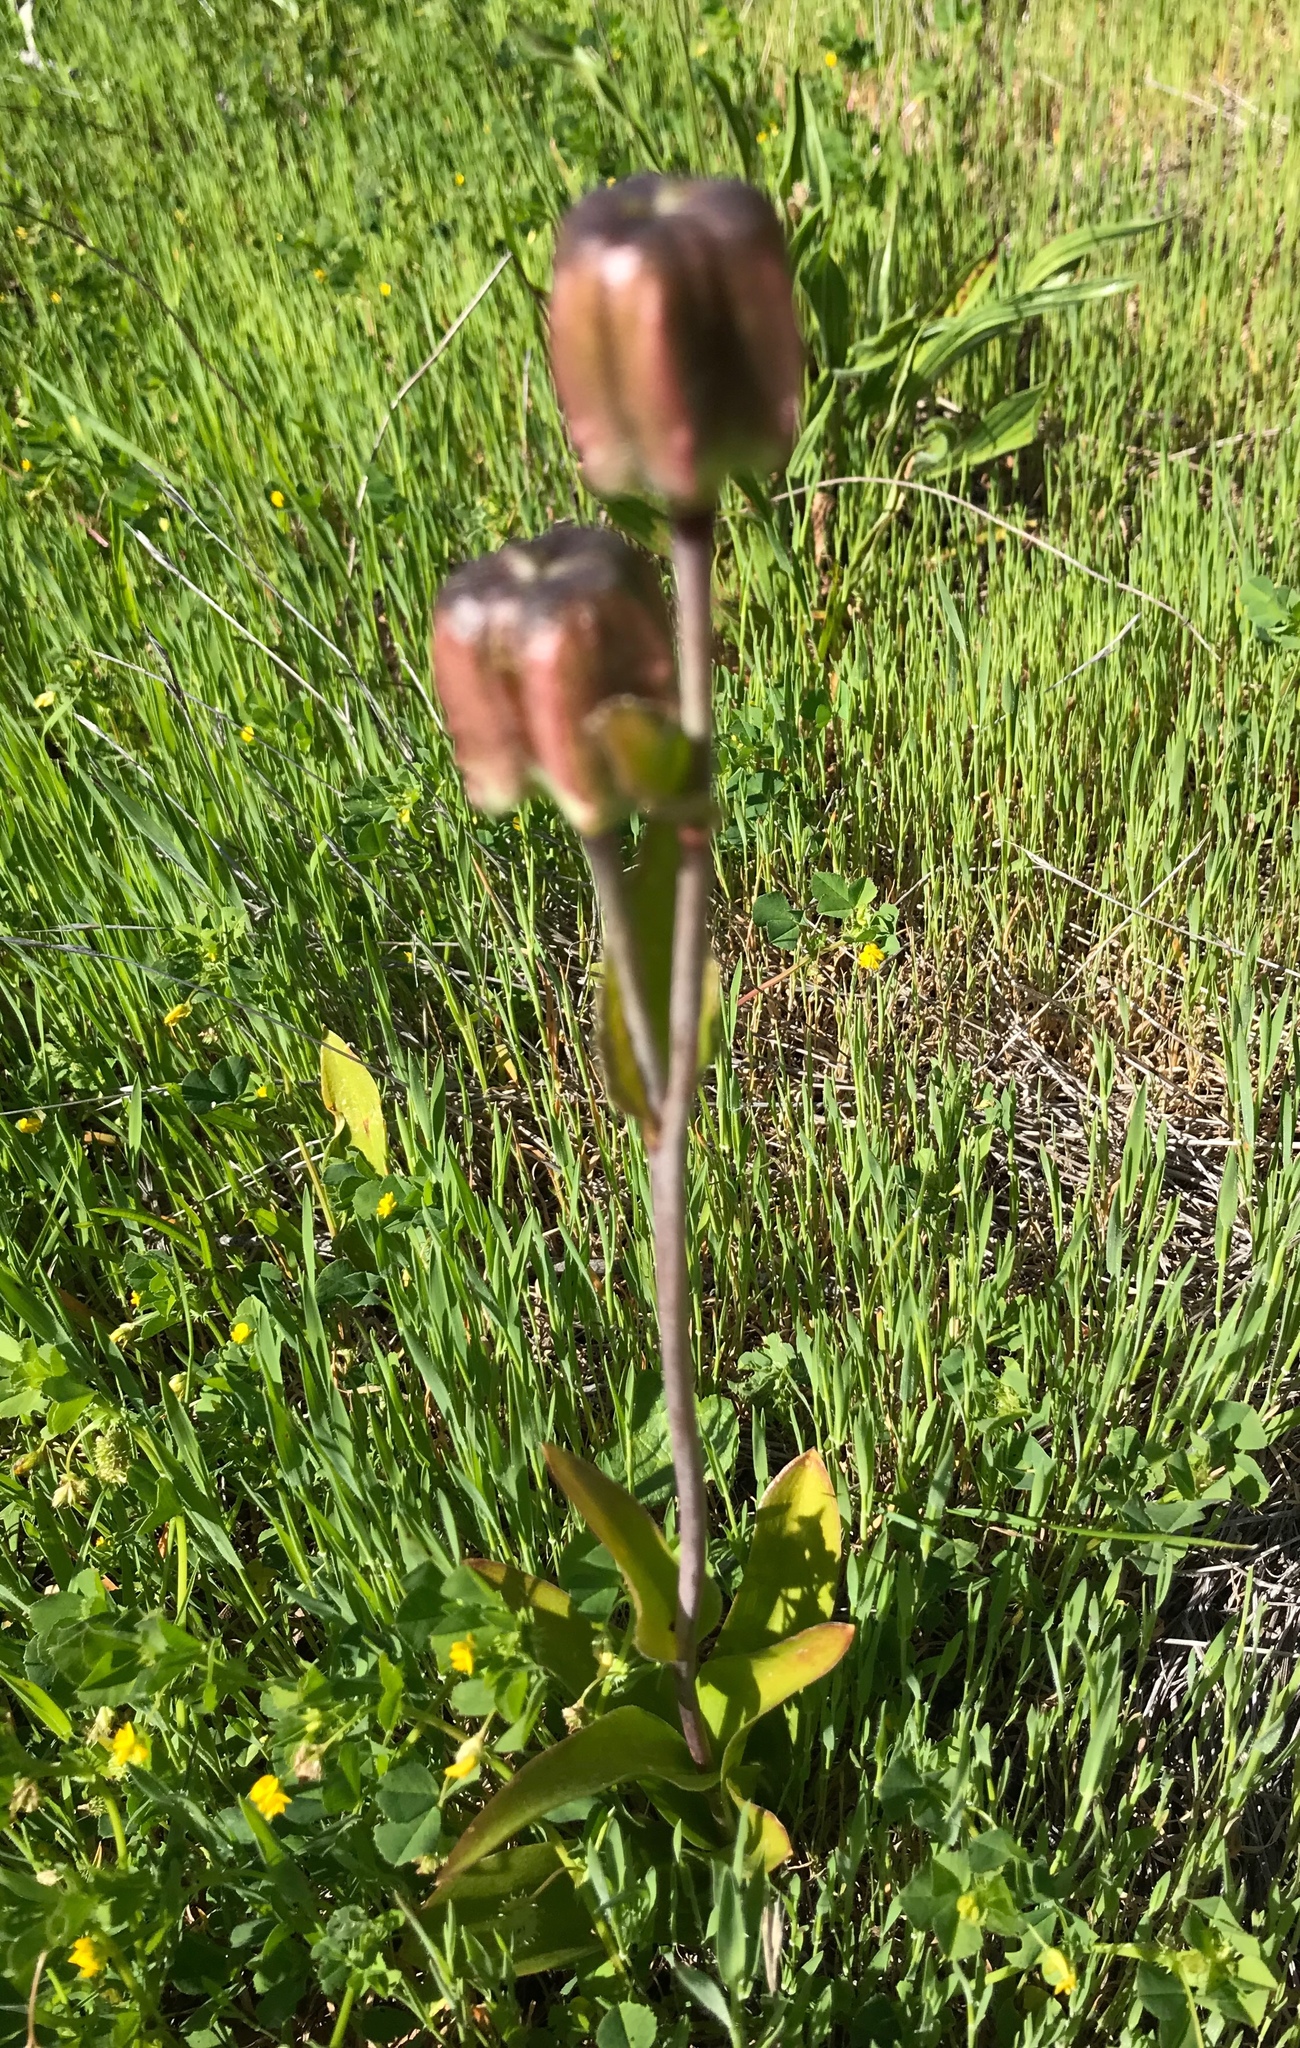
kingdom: Plantae
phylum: Tracheophyta
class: Liliopsida
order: Liliales
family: Liliaceae
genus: Fritillaria
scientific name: Fritillaria biflora
